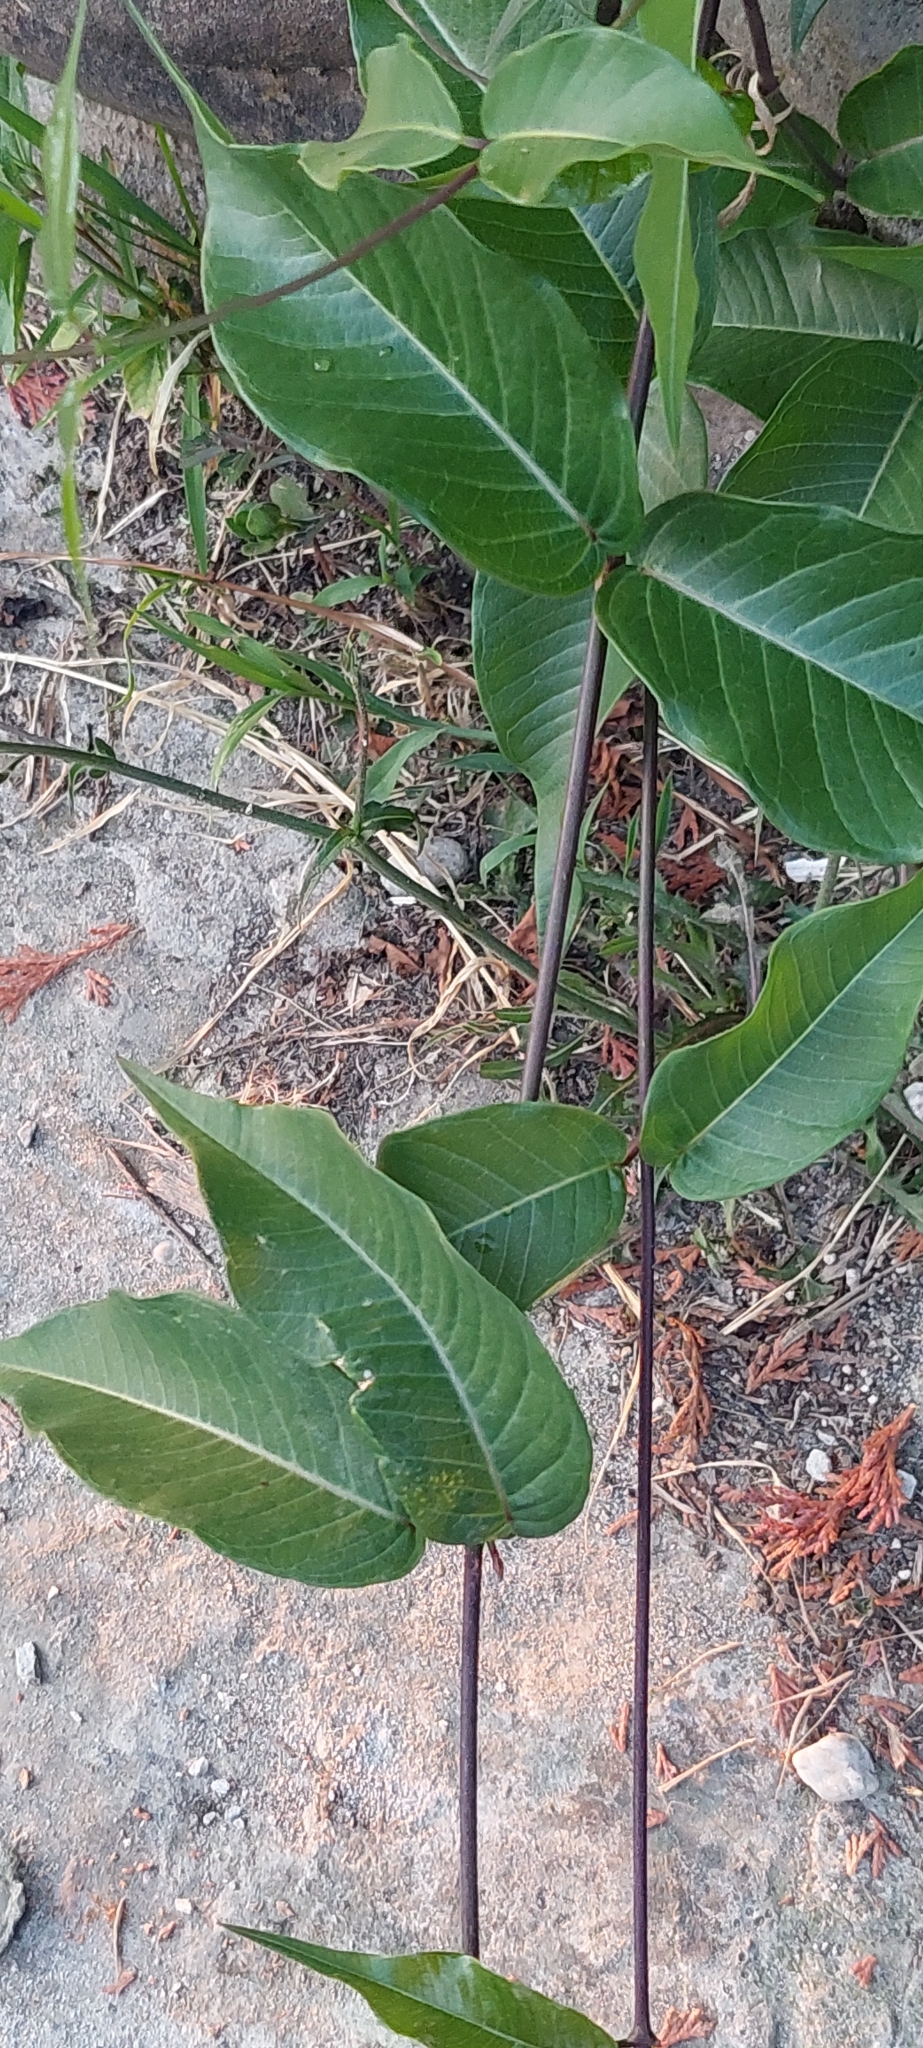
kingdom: Plantae
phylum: Tracheophyta
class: Magnoliopsida
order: Gentianales
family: Apocynaceae
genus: Periploca
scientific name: Periploca graeca
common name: Silkvine
